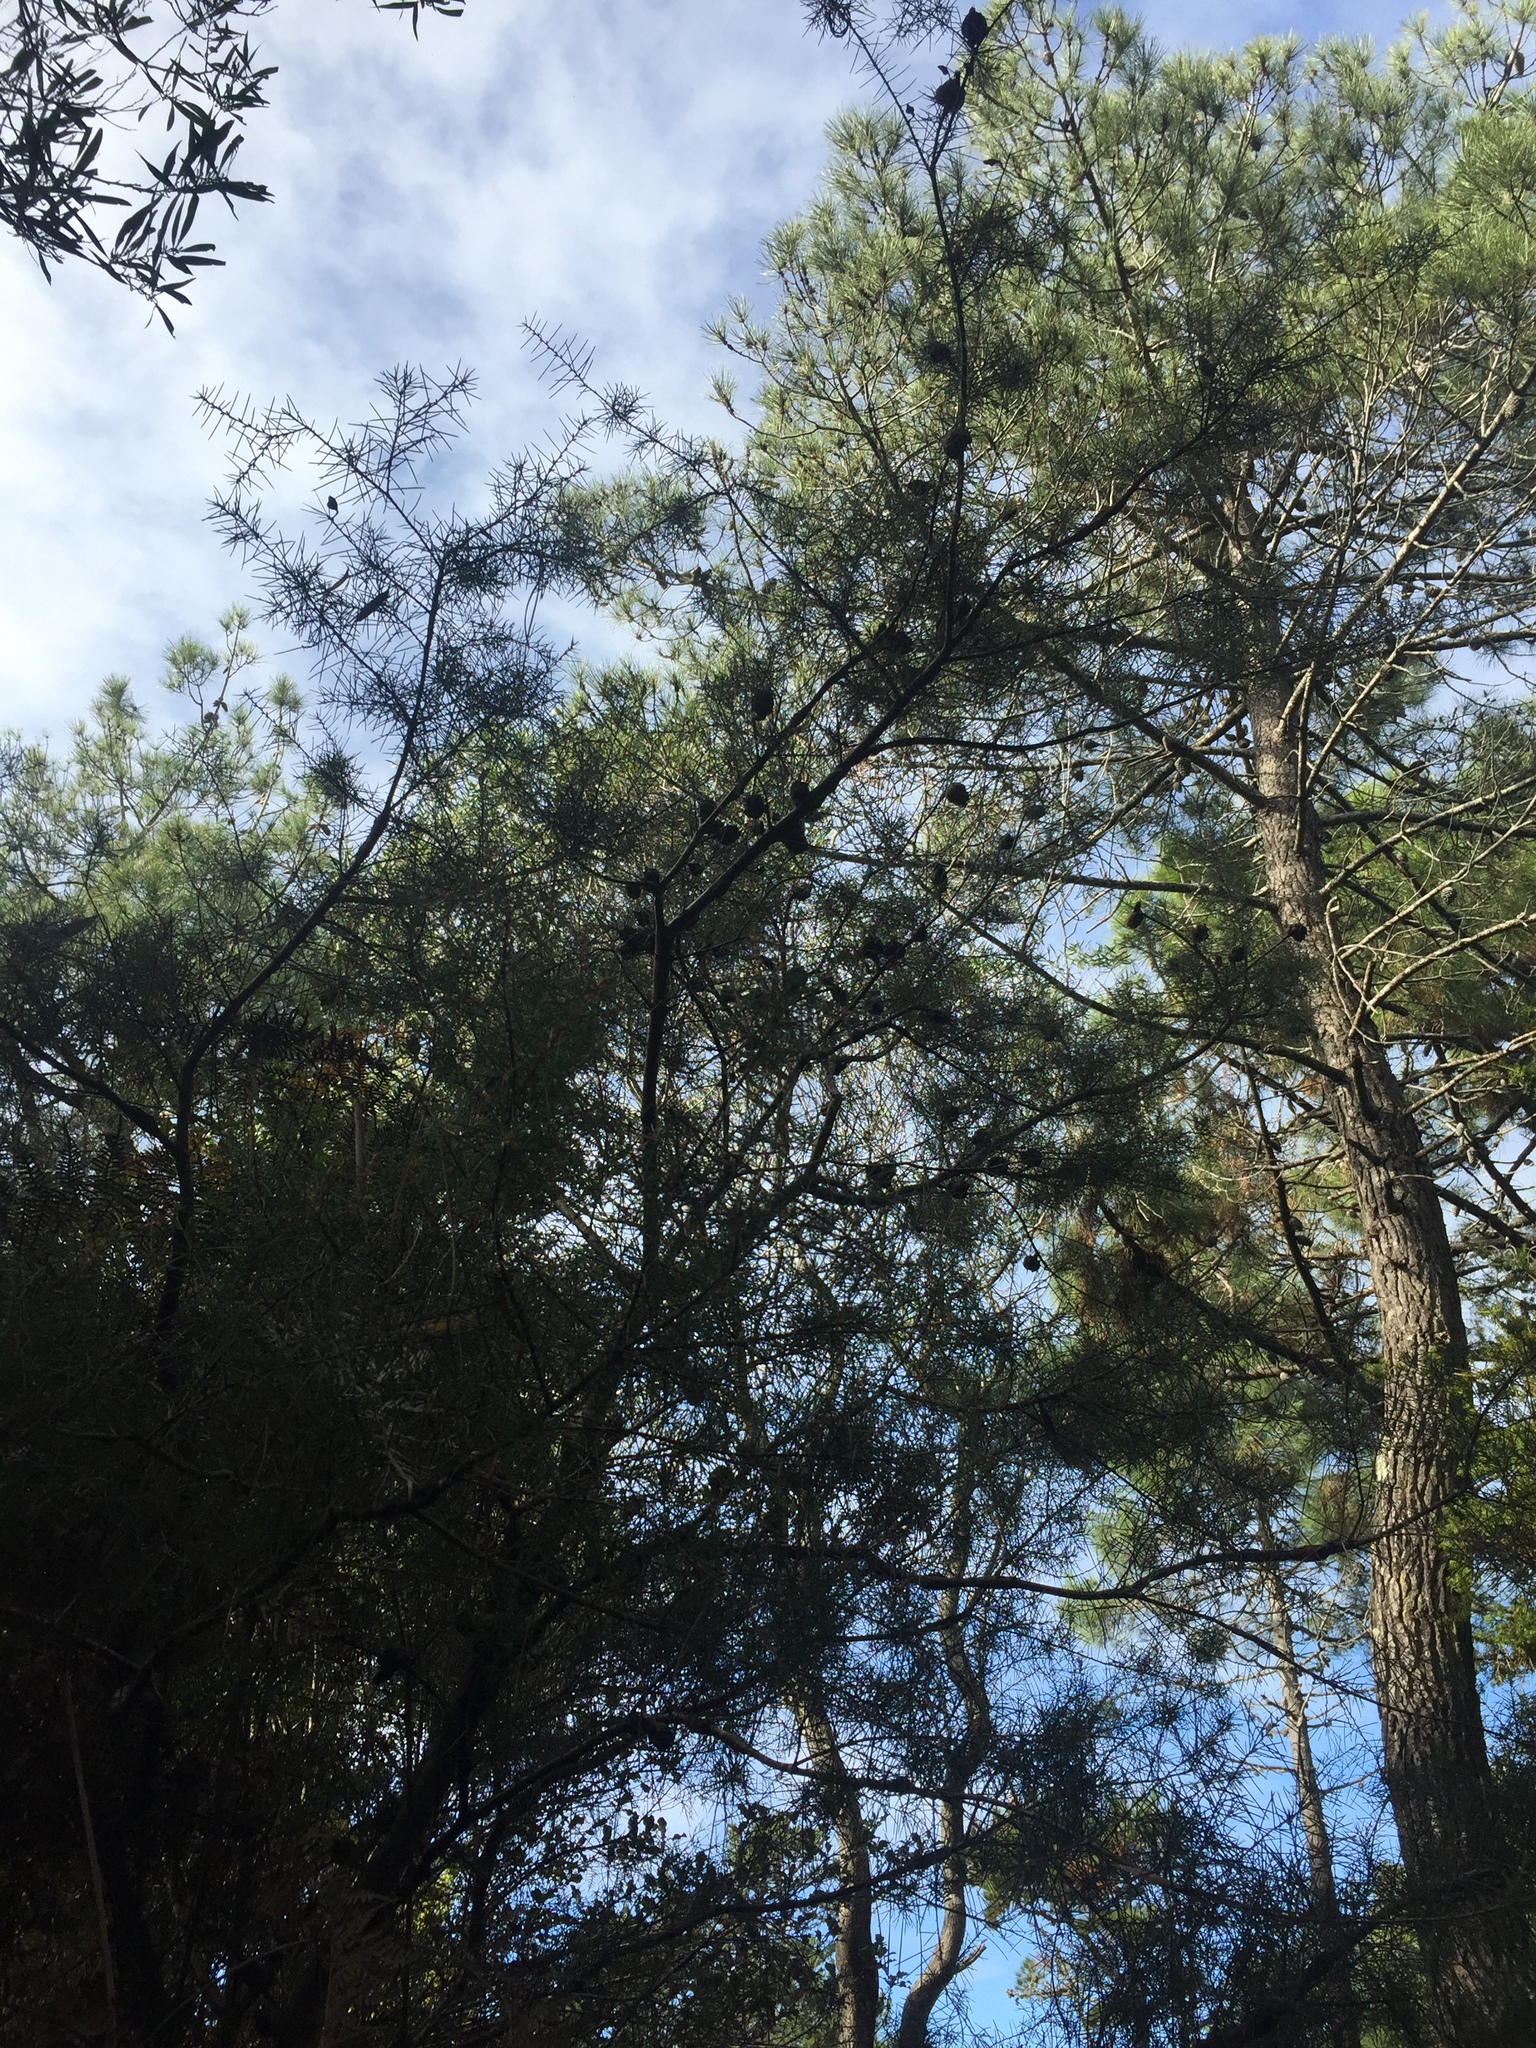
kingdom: Plantae
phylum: Tracheophyta
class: Magnoliopsida
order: Proteales
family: Proteaceae
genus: Hakea
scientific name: Hakea sericea
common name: Needle bush
